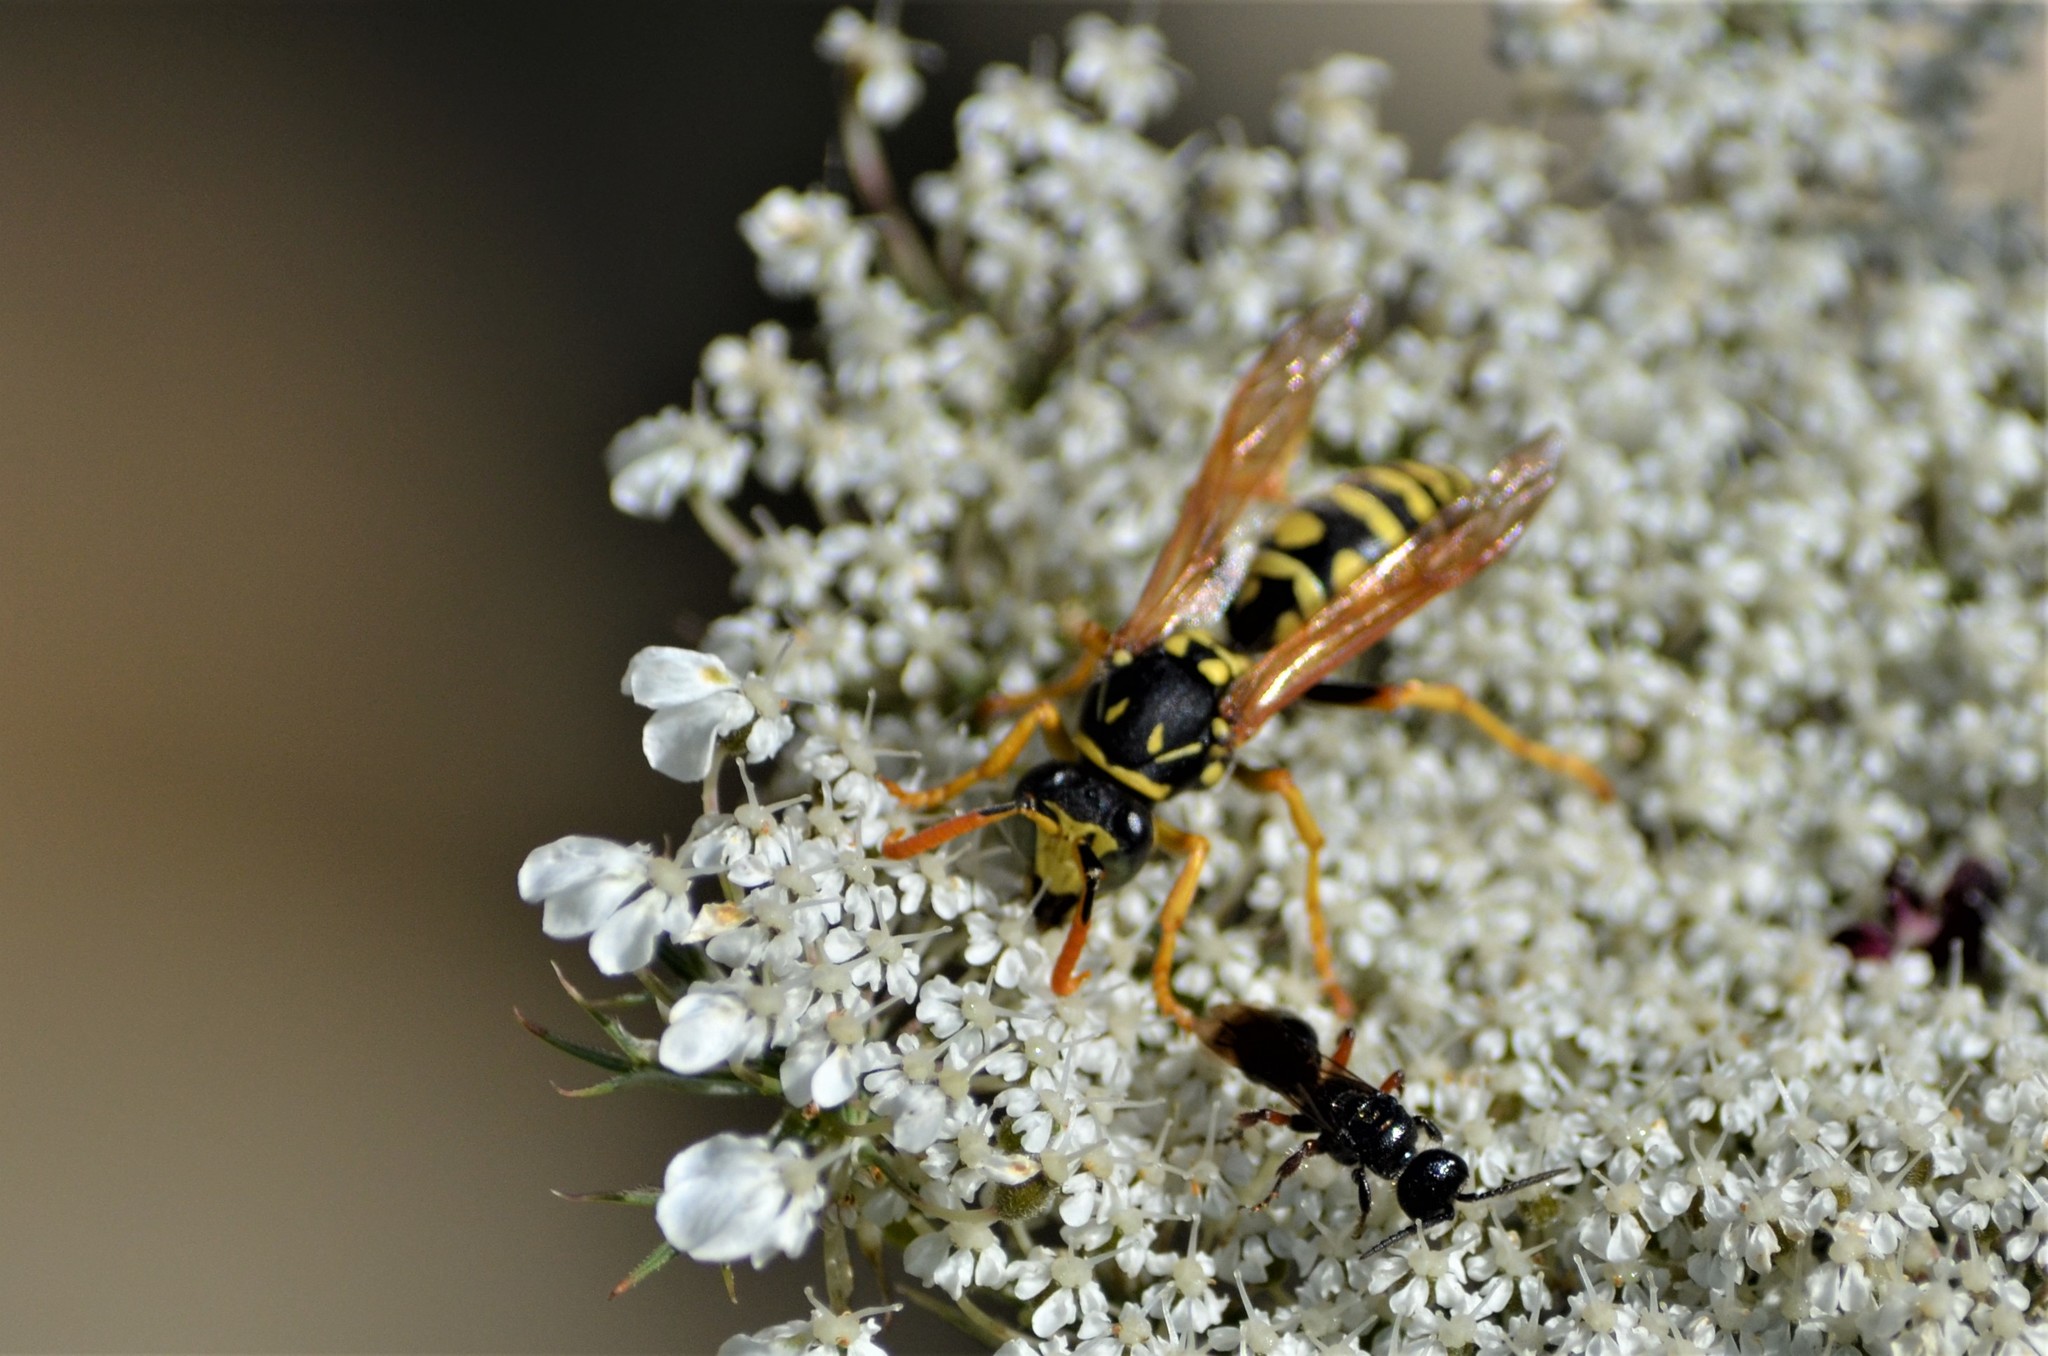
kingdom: Animalia
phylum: Arthropoda
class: Insecta
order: Hymenoptera
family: Eumenidae
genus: Polistes
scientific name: Polistes dominula
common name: Paper wasp
